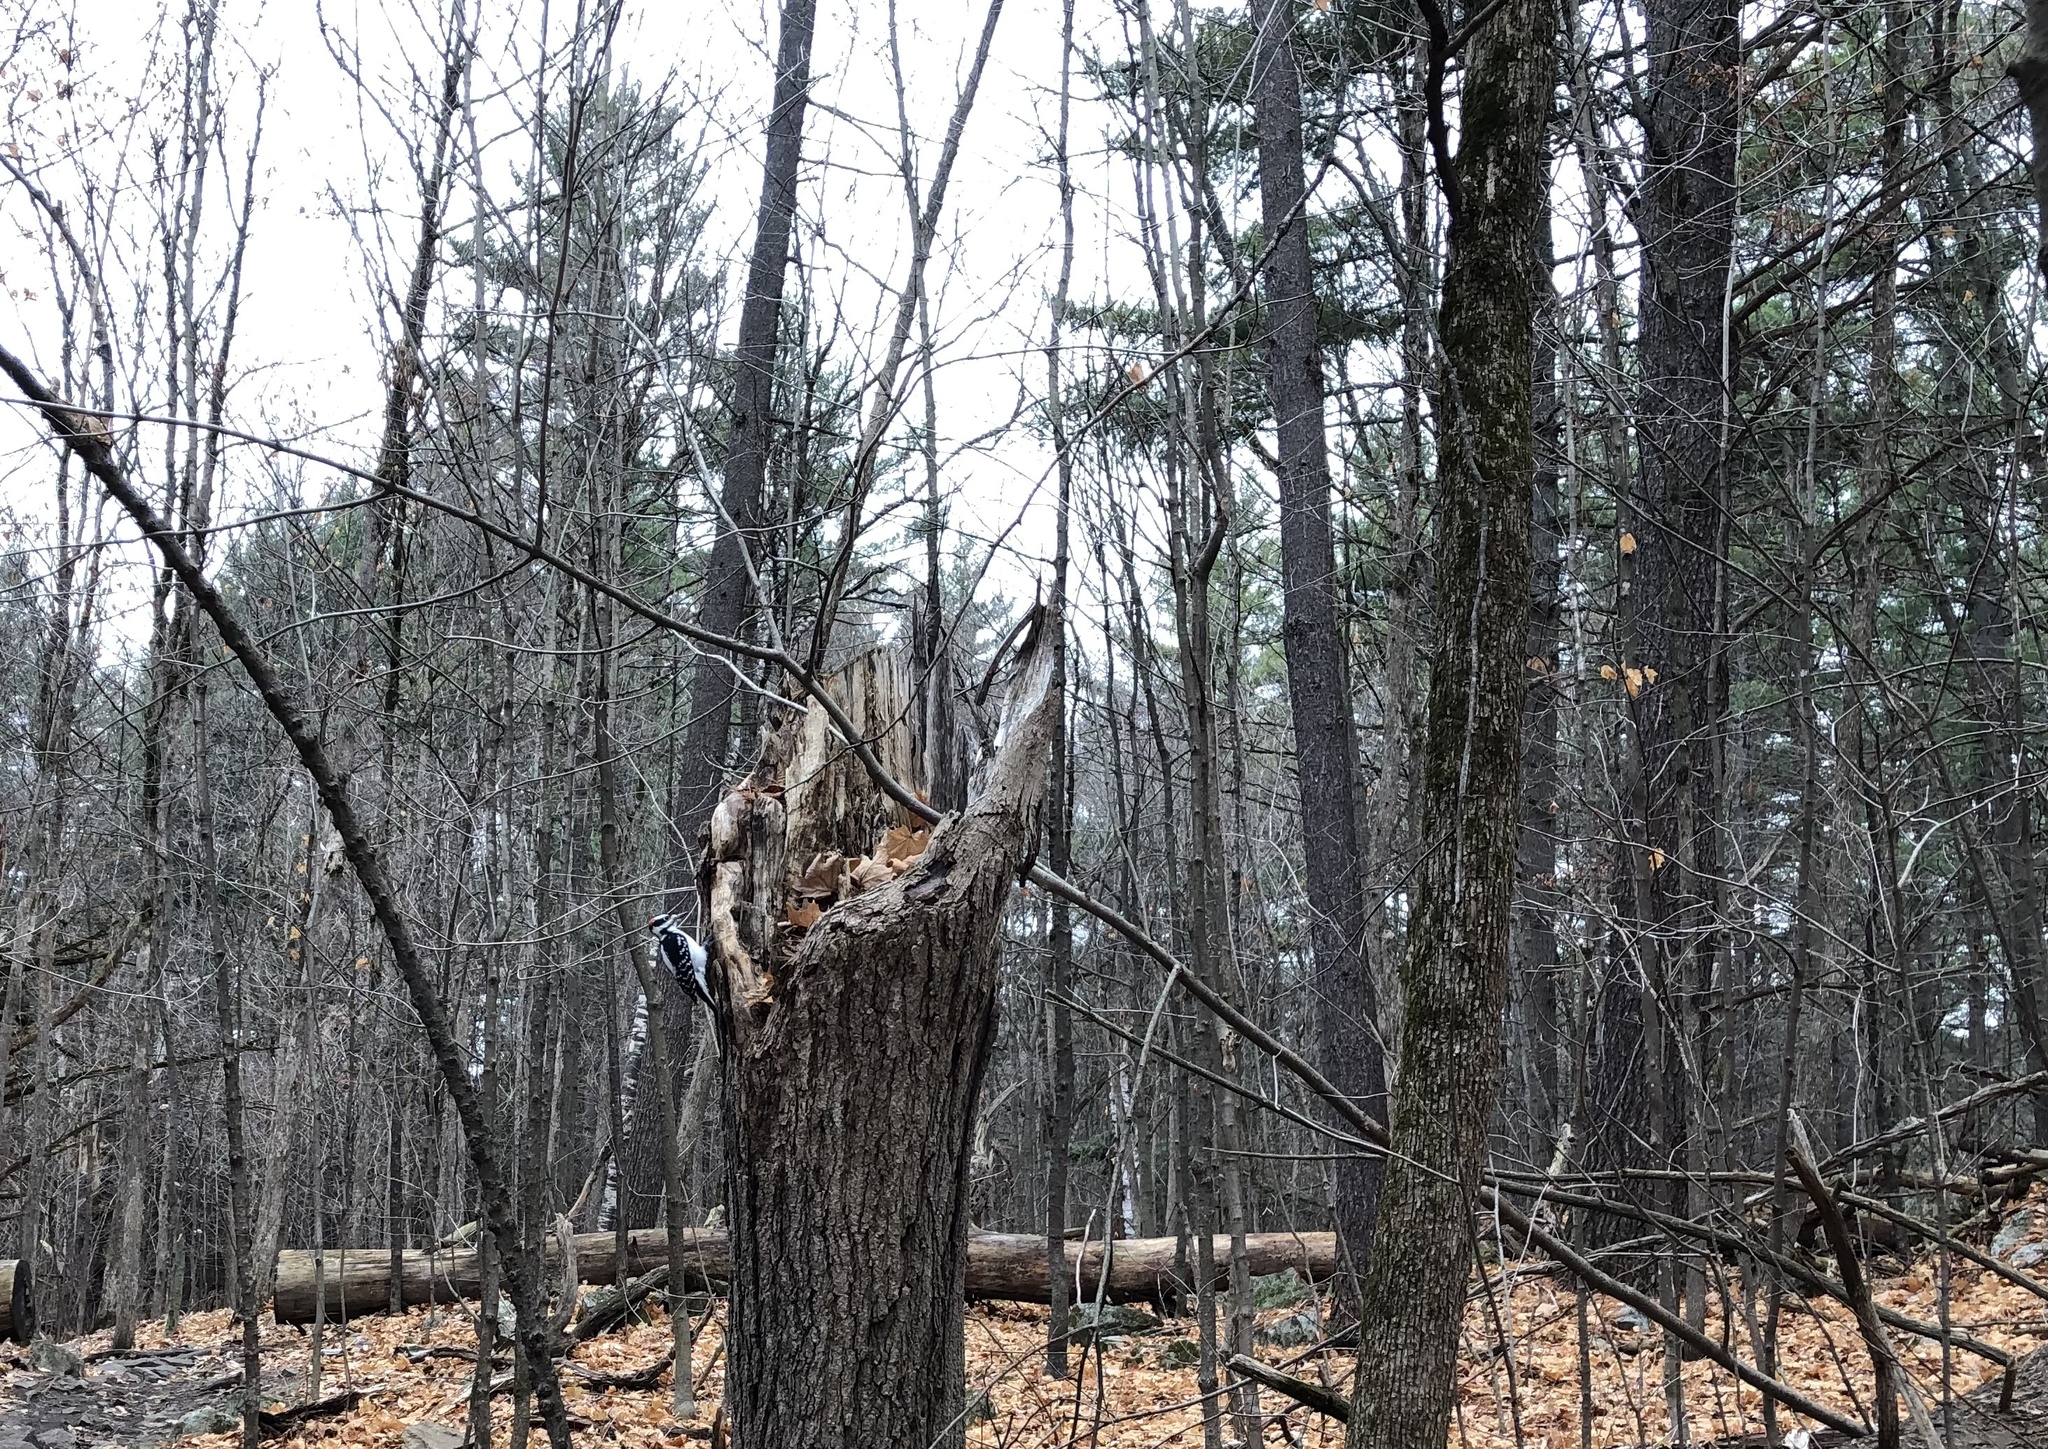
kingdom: Animalia
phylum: Chordata
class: Aves
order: Piciformes
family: Picidae
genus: Leuconotopicus
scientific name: Leuconotopicus villosus
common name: Hairy woodpecker
